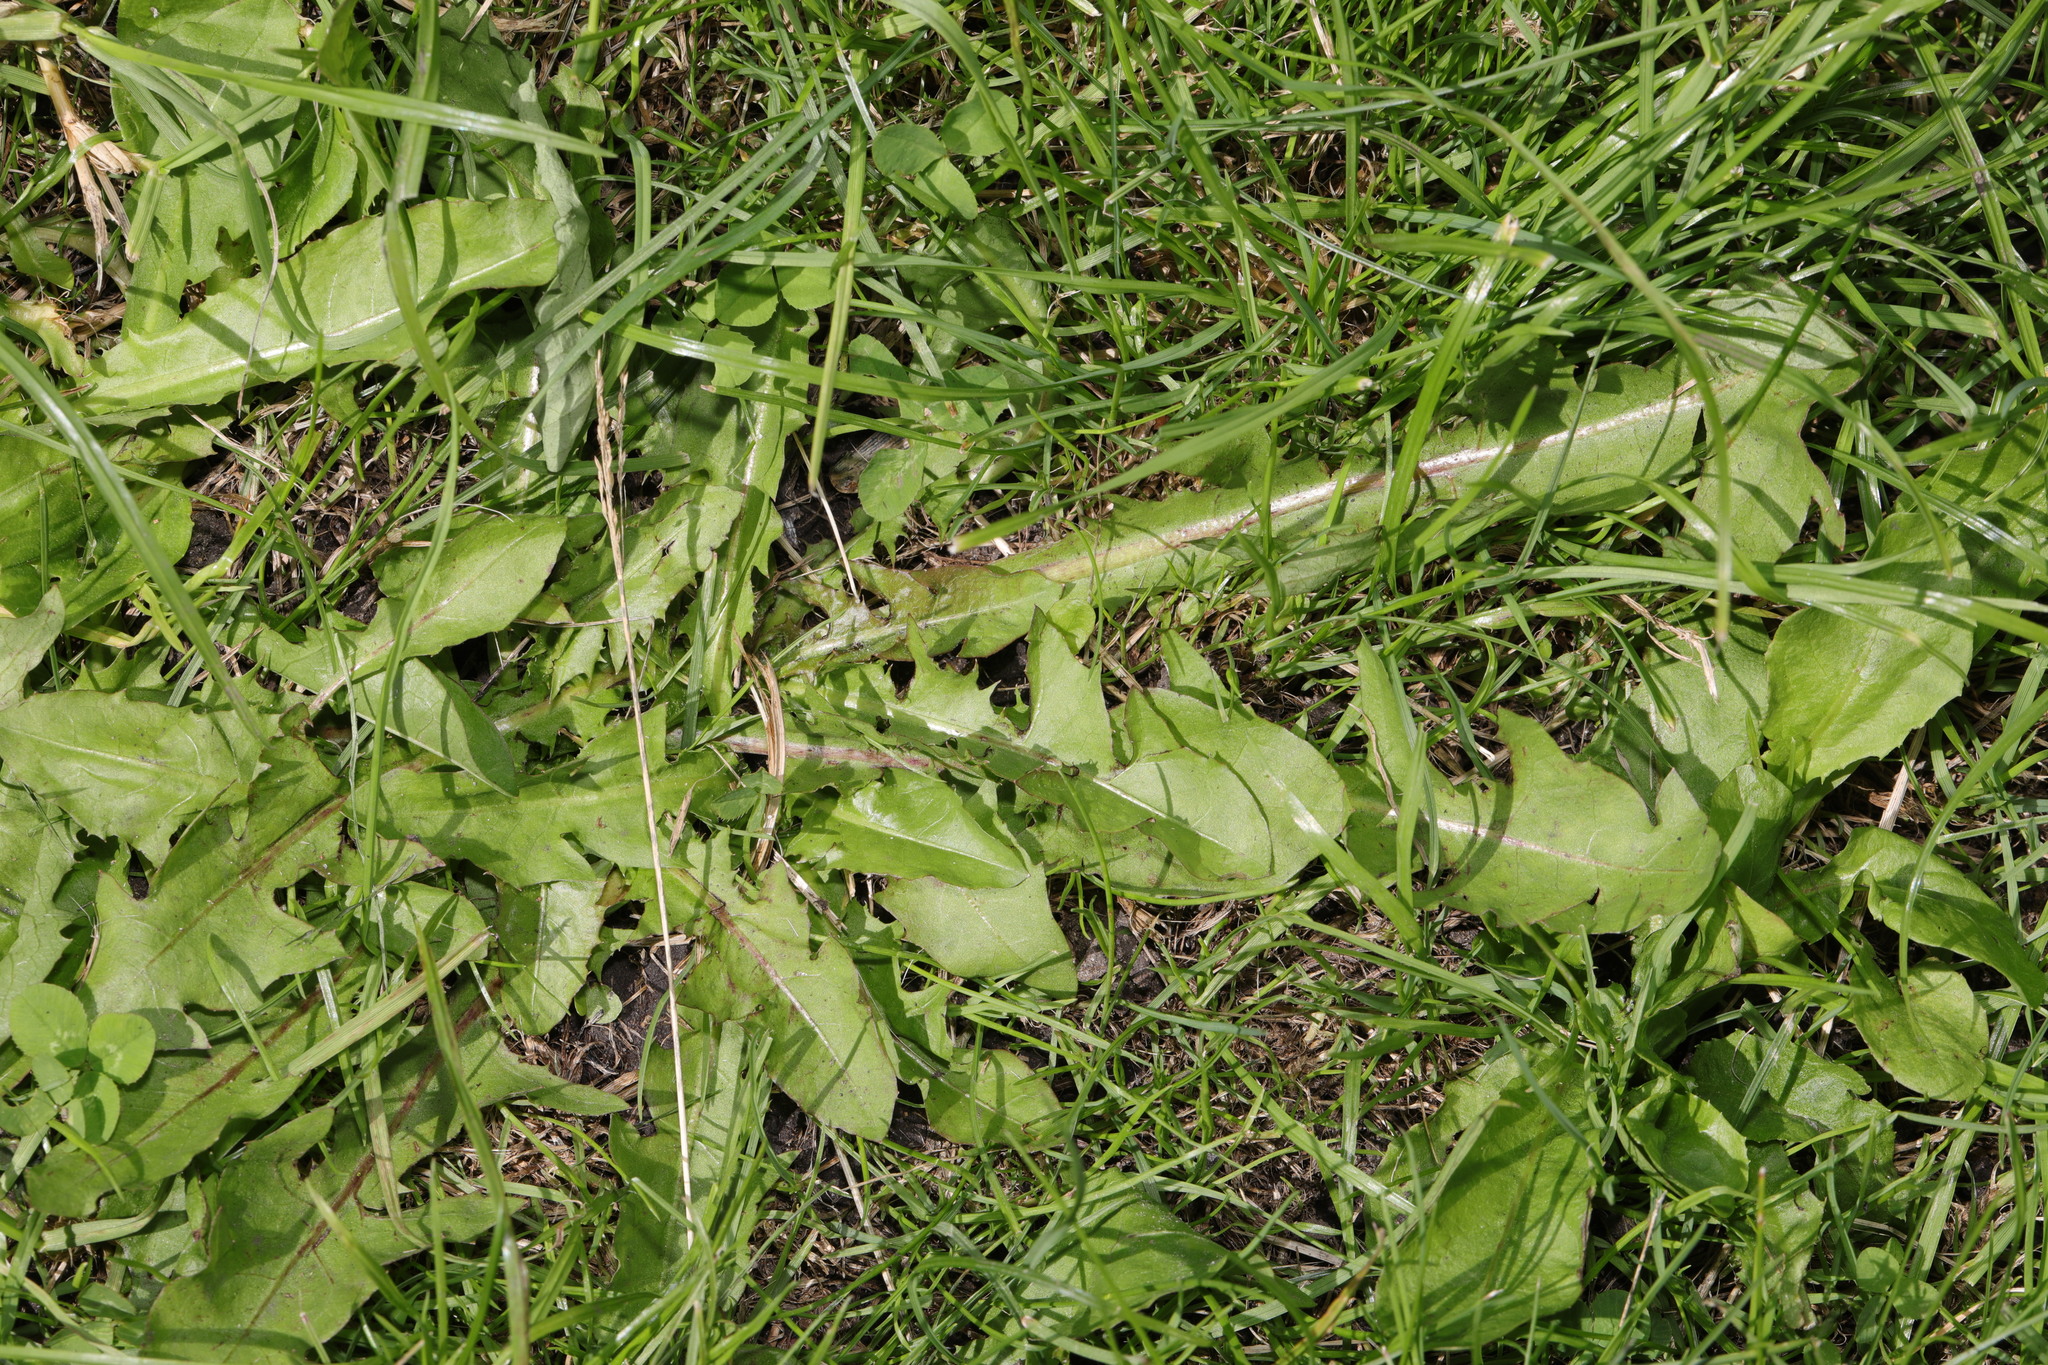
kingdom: Plantae
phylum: Tracheophyta
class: Magnoliopsida
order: Asterales
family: Asteraceae
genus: Taraxacum
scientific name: Taraxacum officinale
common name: Common dandelion
